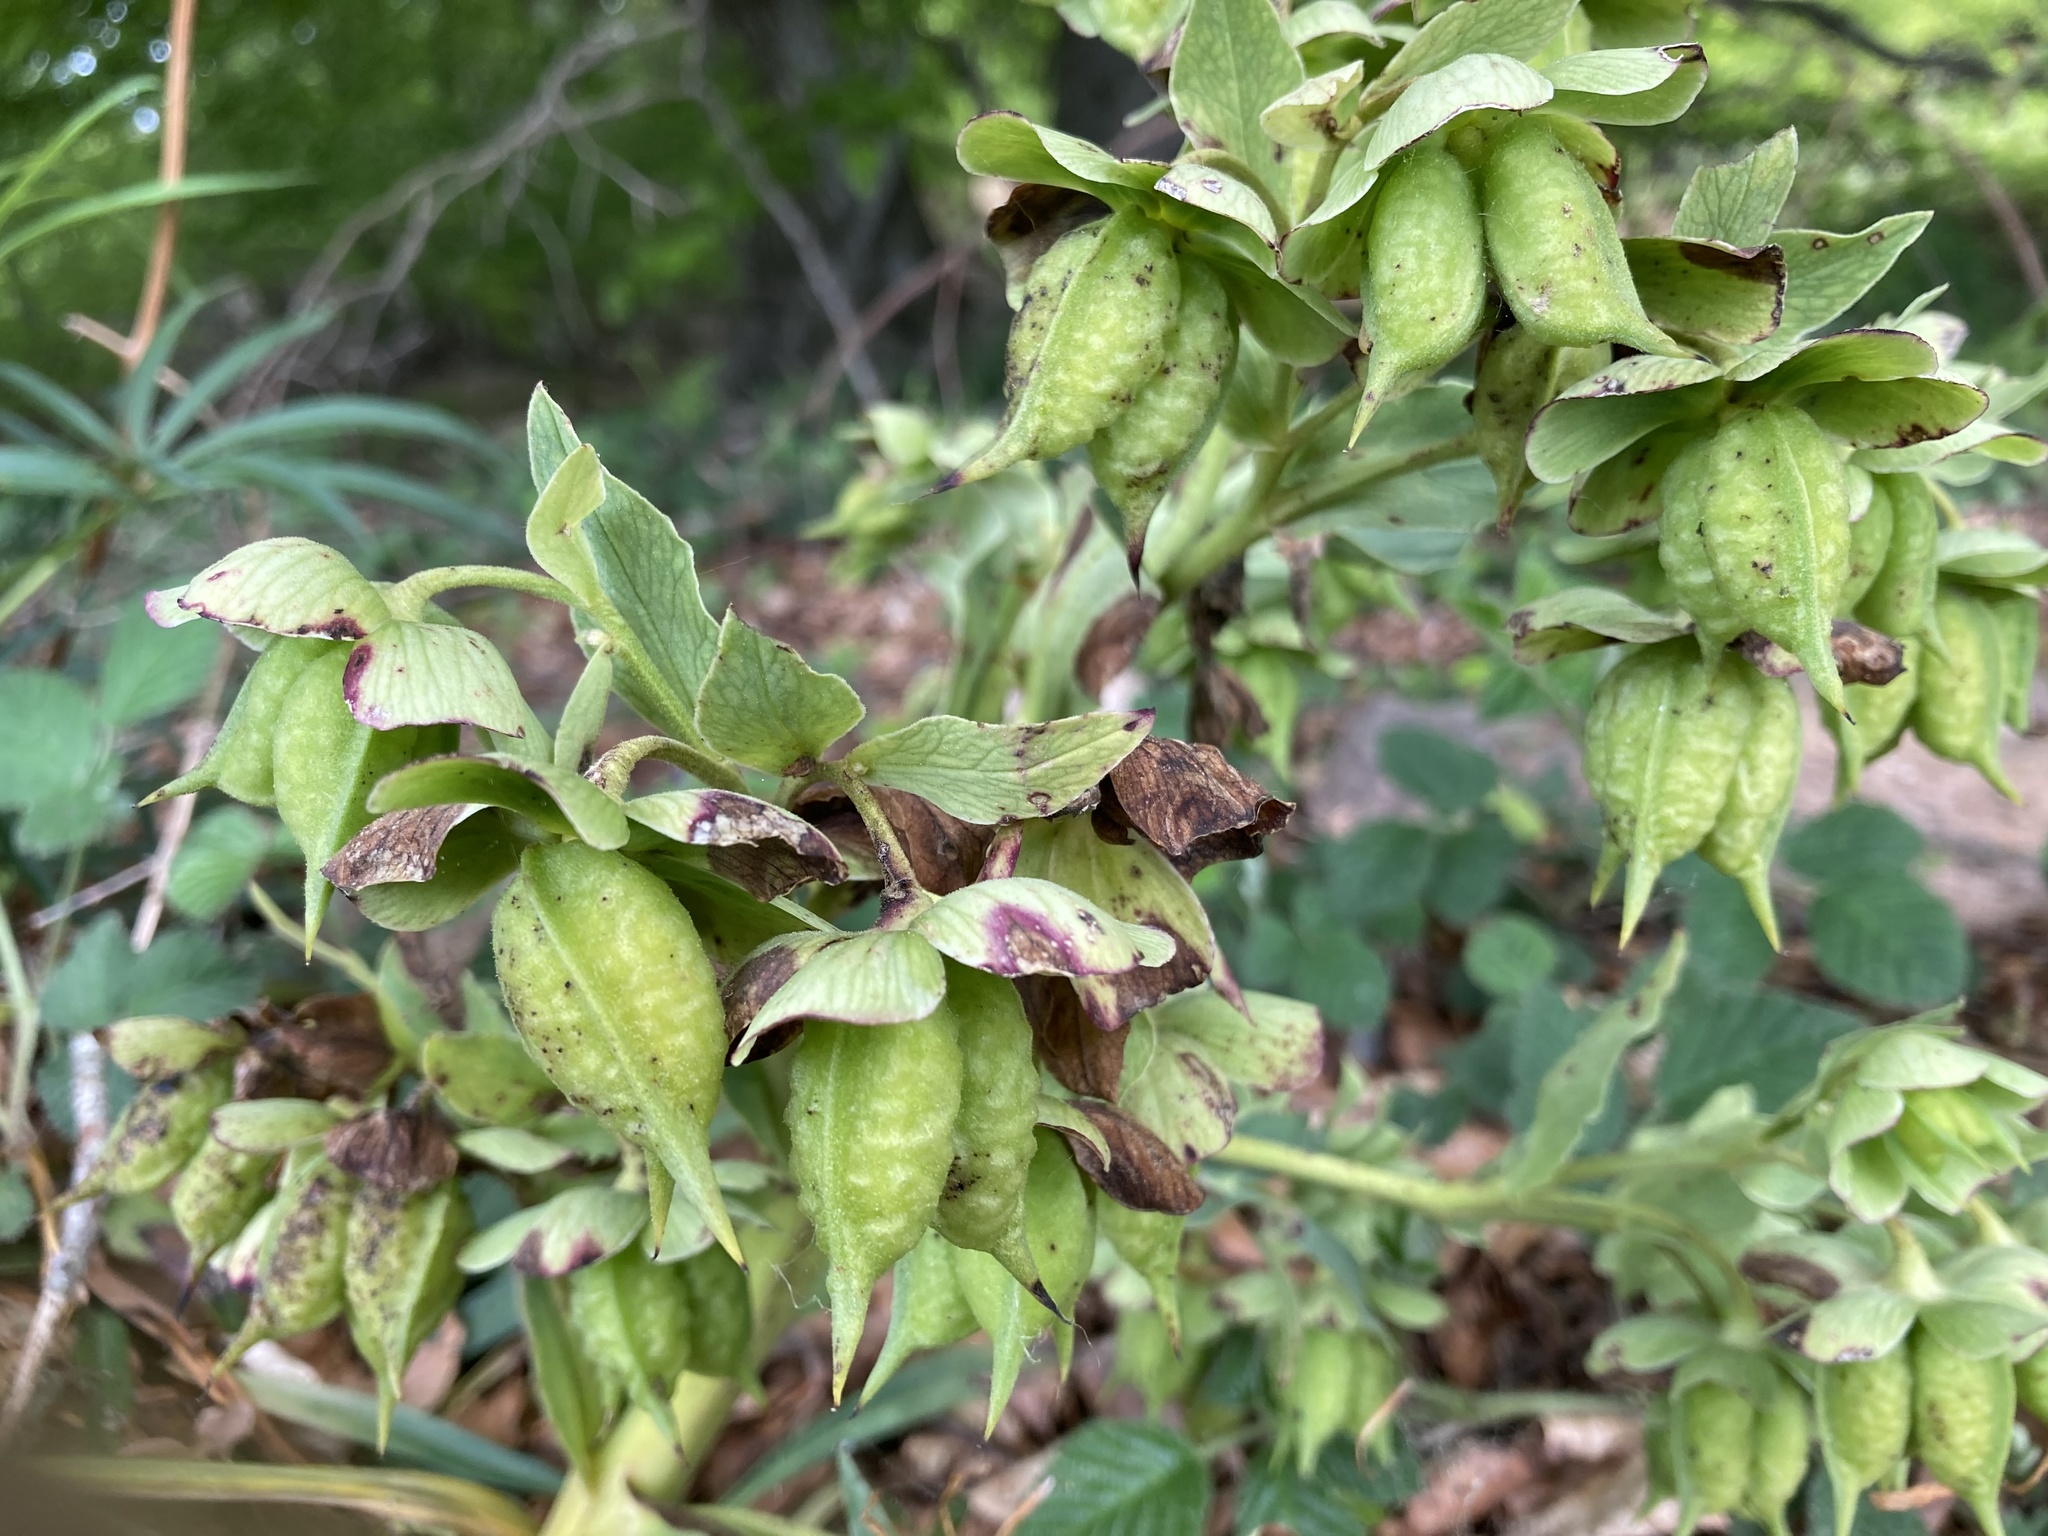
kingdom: Plantae
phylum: Tracheophyta
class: Magnoliopsida
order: Ranunculales
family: Ranunculaceae
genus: Helleborus
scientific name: Helleborus foetidus
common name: Stinking hellebore
